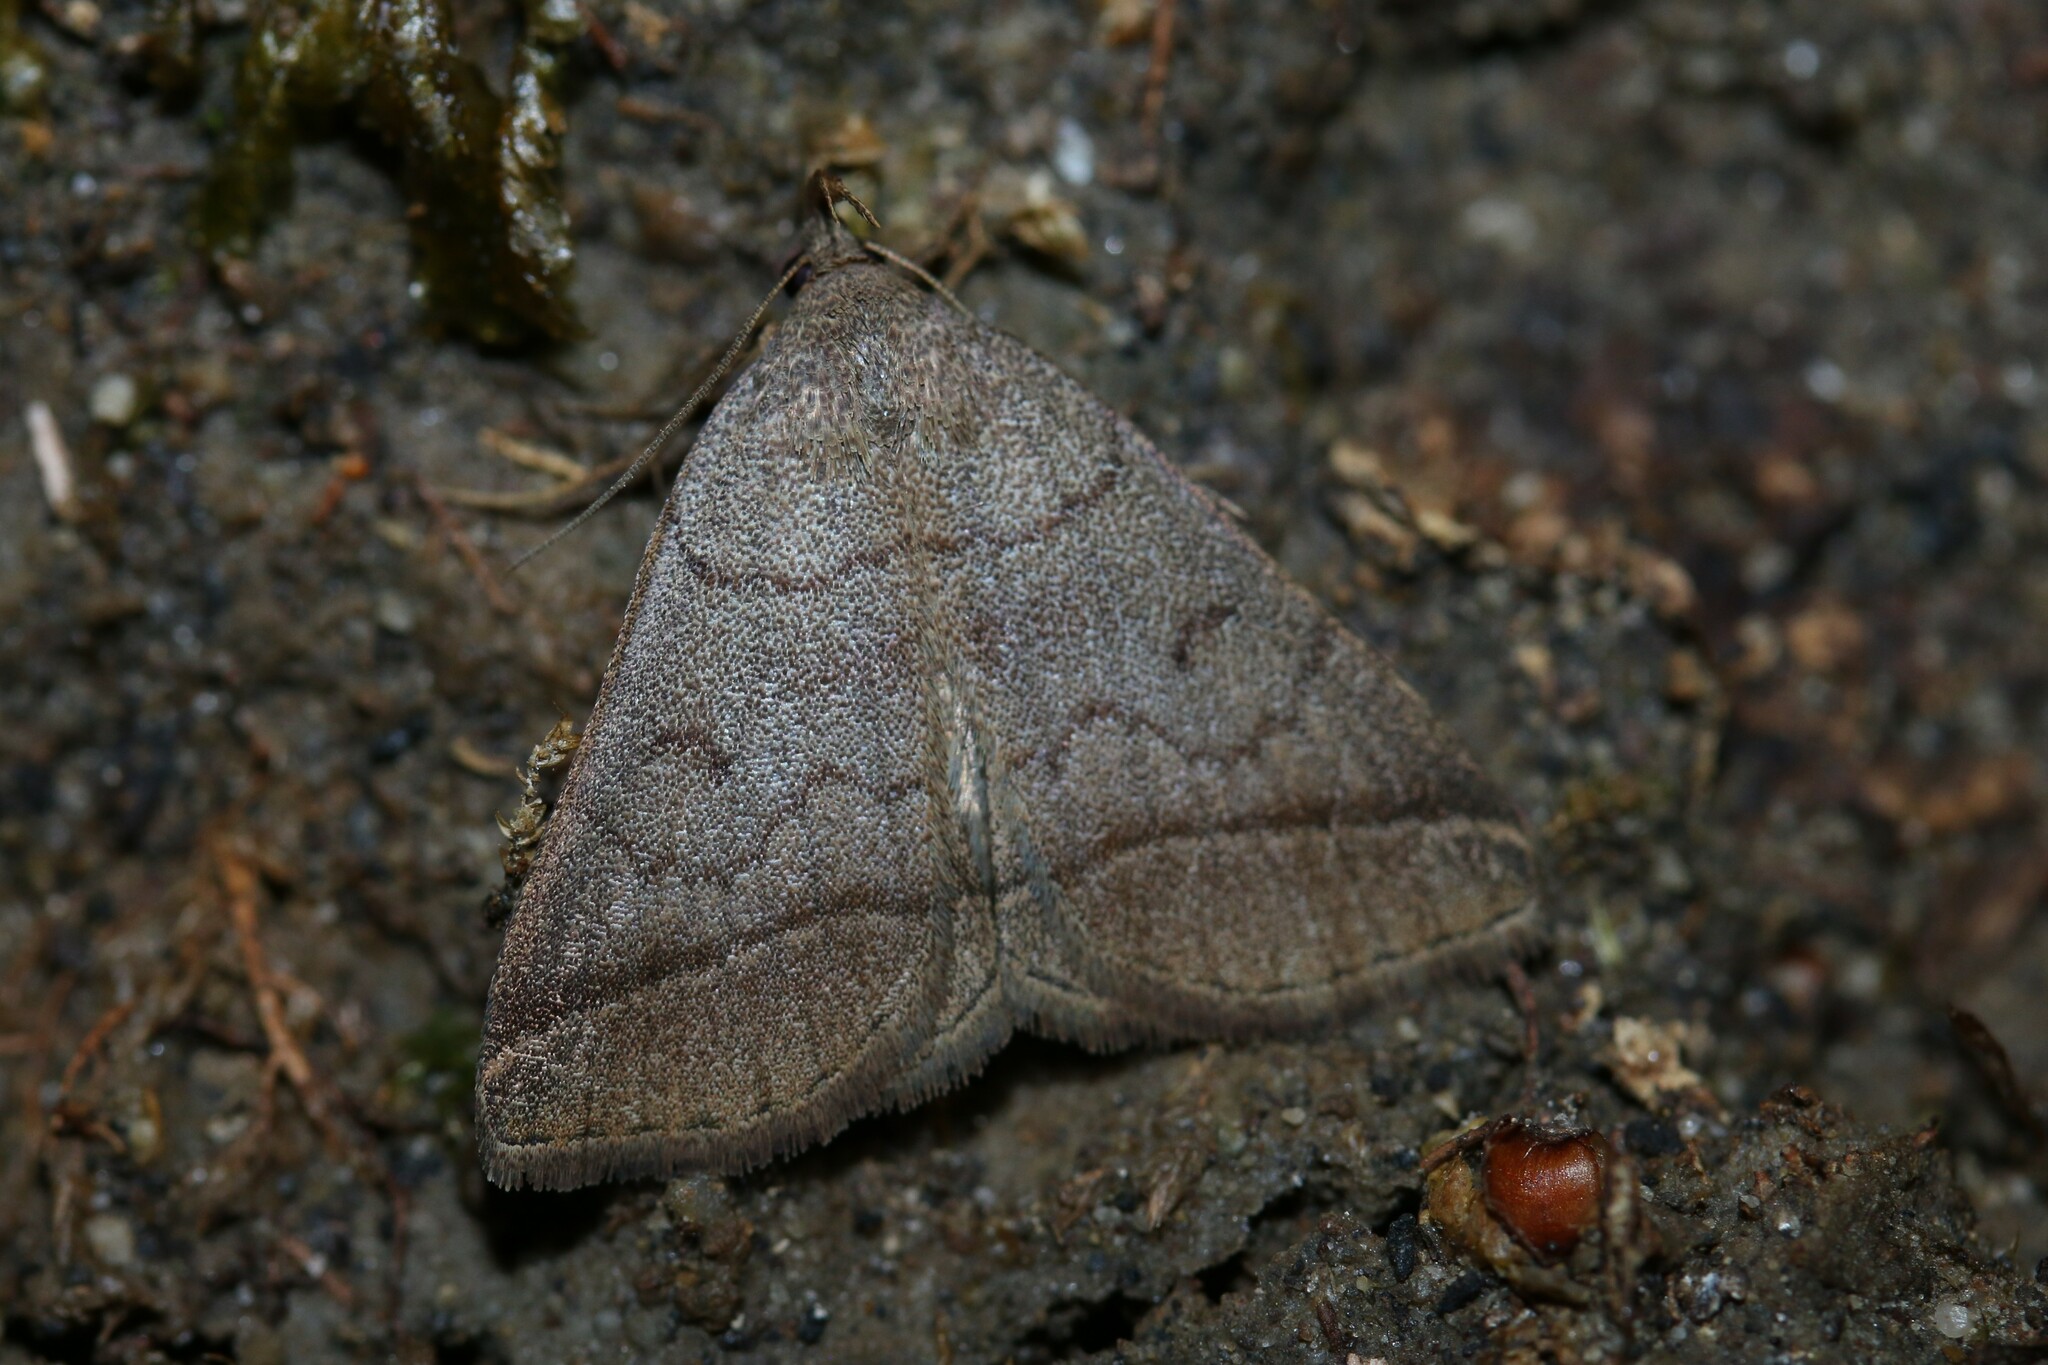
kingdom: Animalia
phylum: Arthropoda
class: Insecta
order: Lepidoptera
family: Erebidae
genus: Zanclognatha
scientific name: Zanclognatha lunalis
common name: Jubilee fan-foot
